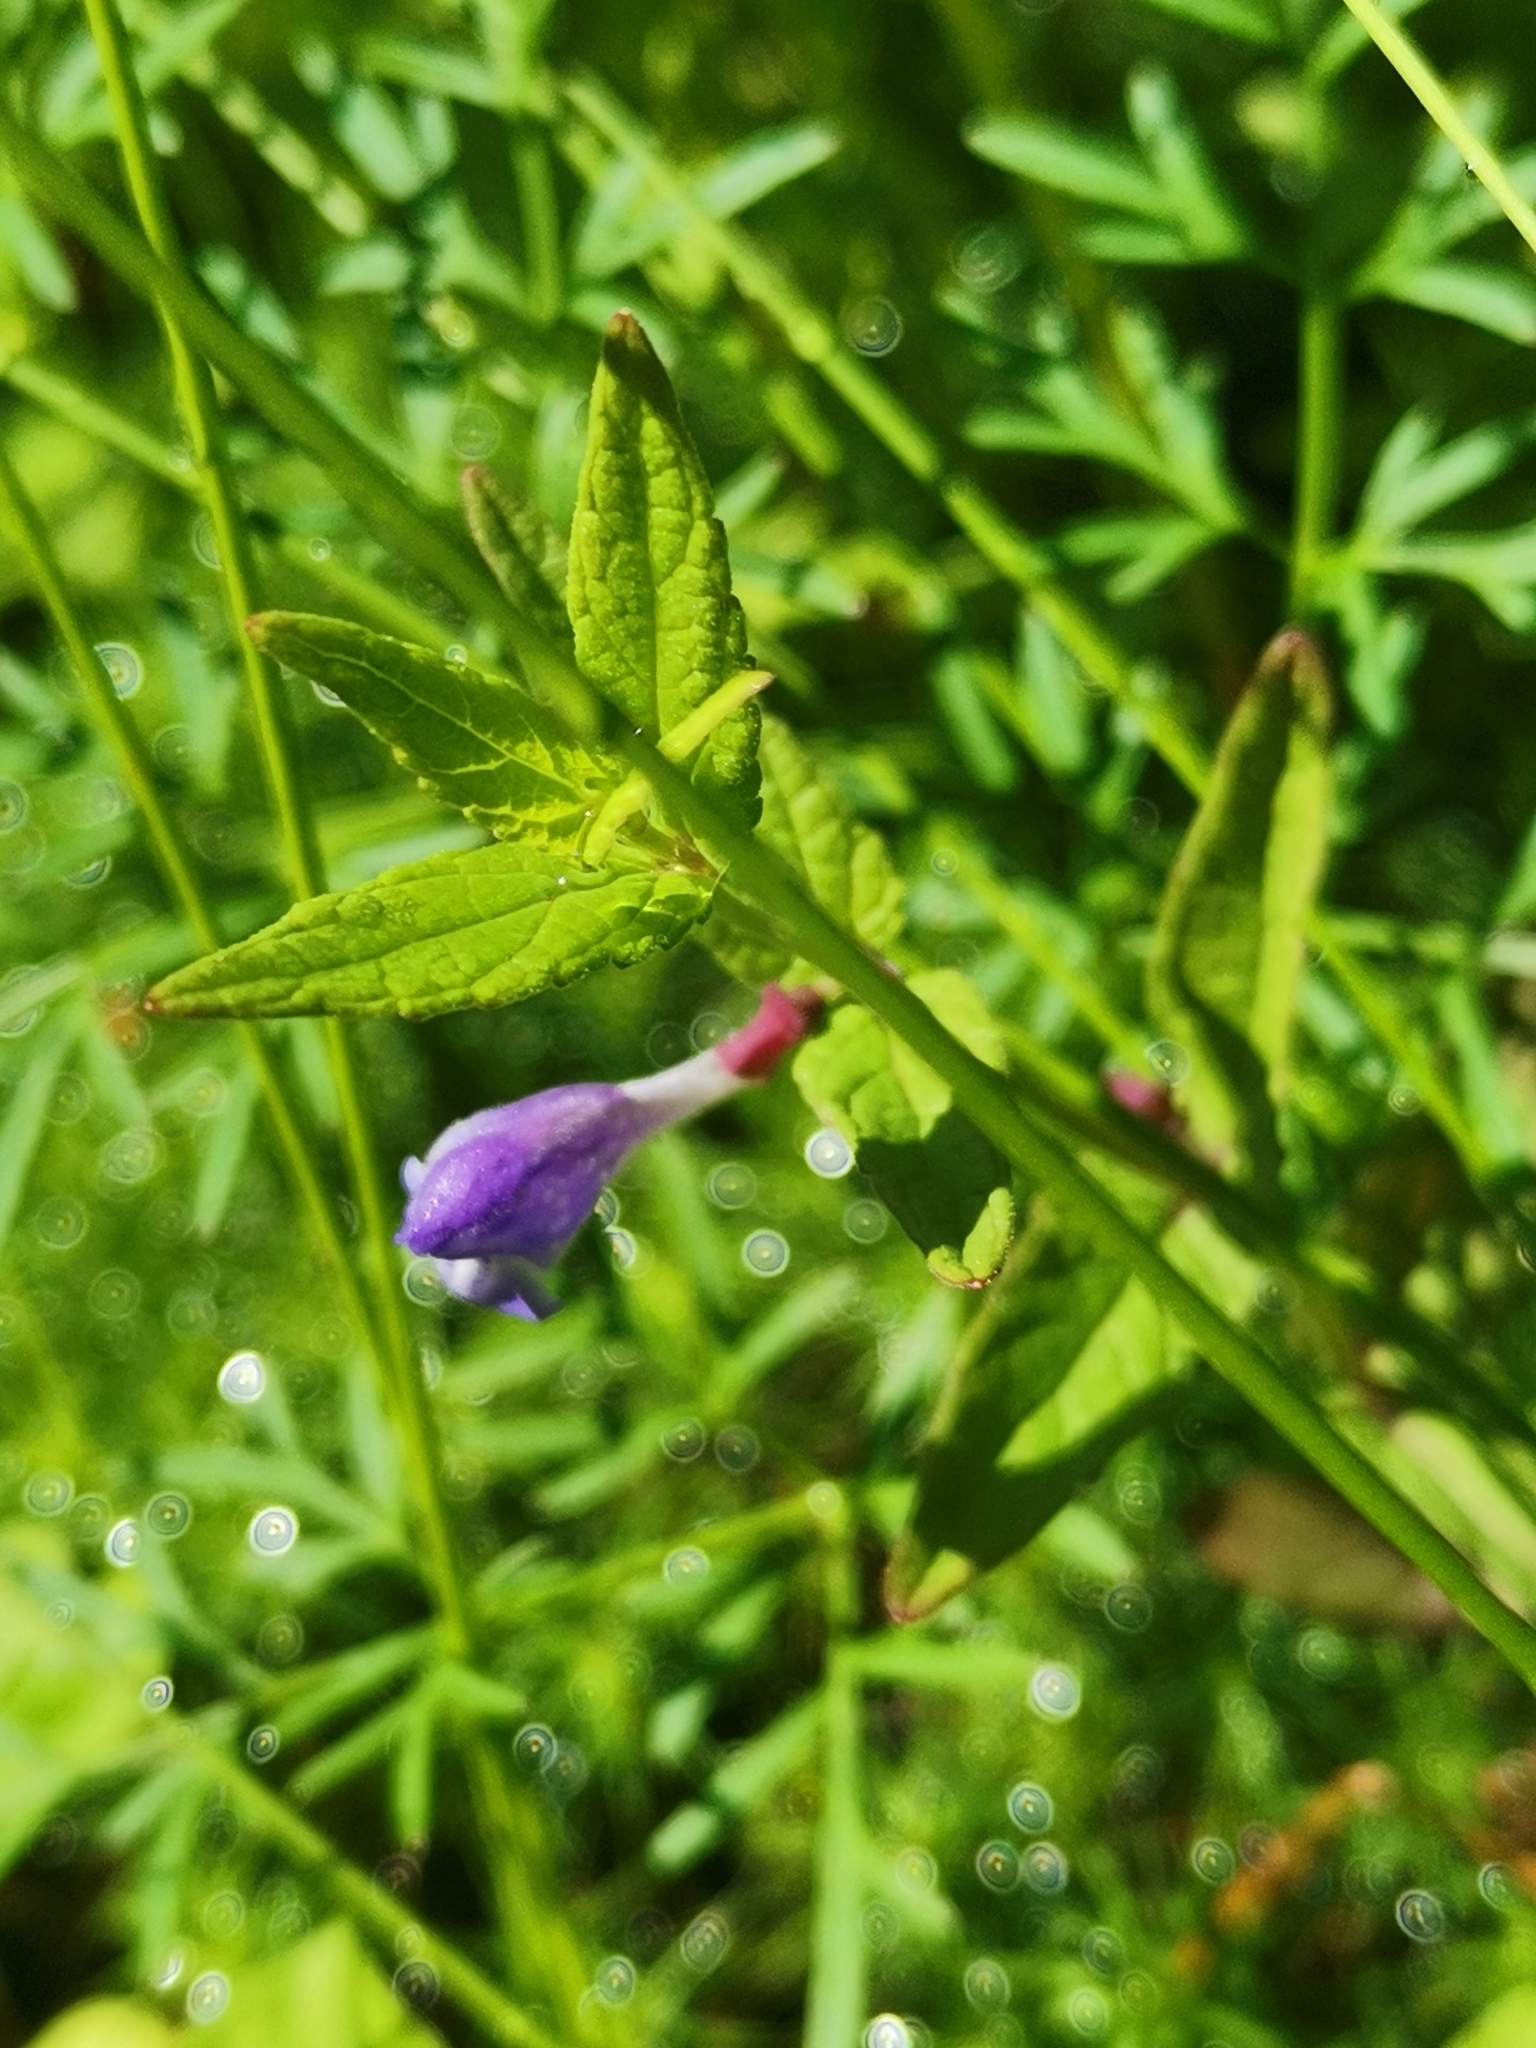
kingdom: Plantae
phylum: Tracheophyta
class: Magnoliopsida
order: Lamiales
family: Lamiaceae
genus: Scutellaria
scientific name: Scutellaria galericulata
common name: Skullcap
